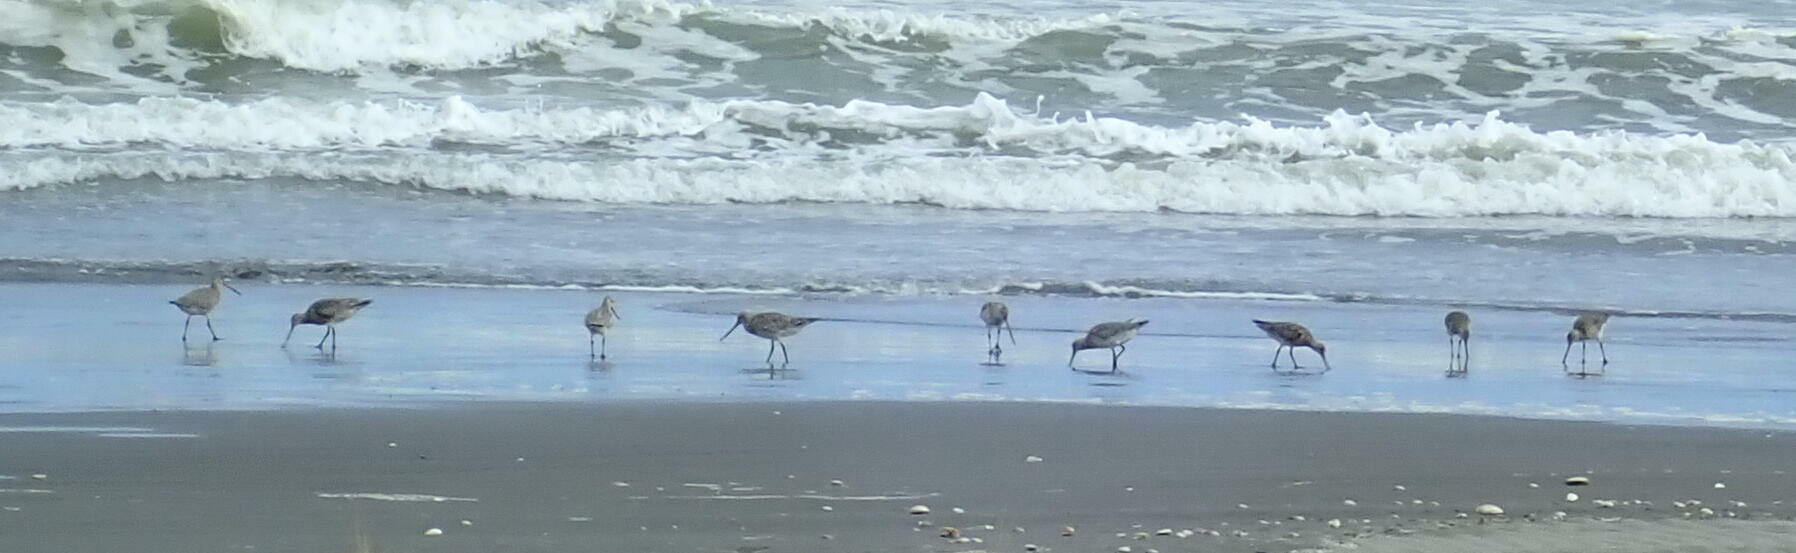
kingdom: Animalia
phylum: Chordata
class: Aves
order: Charadriiformes
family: Scolopacidae
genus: Limosa
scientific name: Limosa lapponica
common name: Bar-tailed godwit
